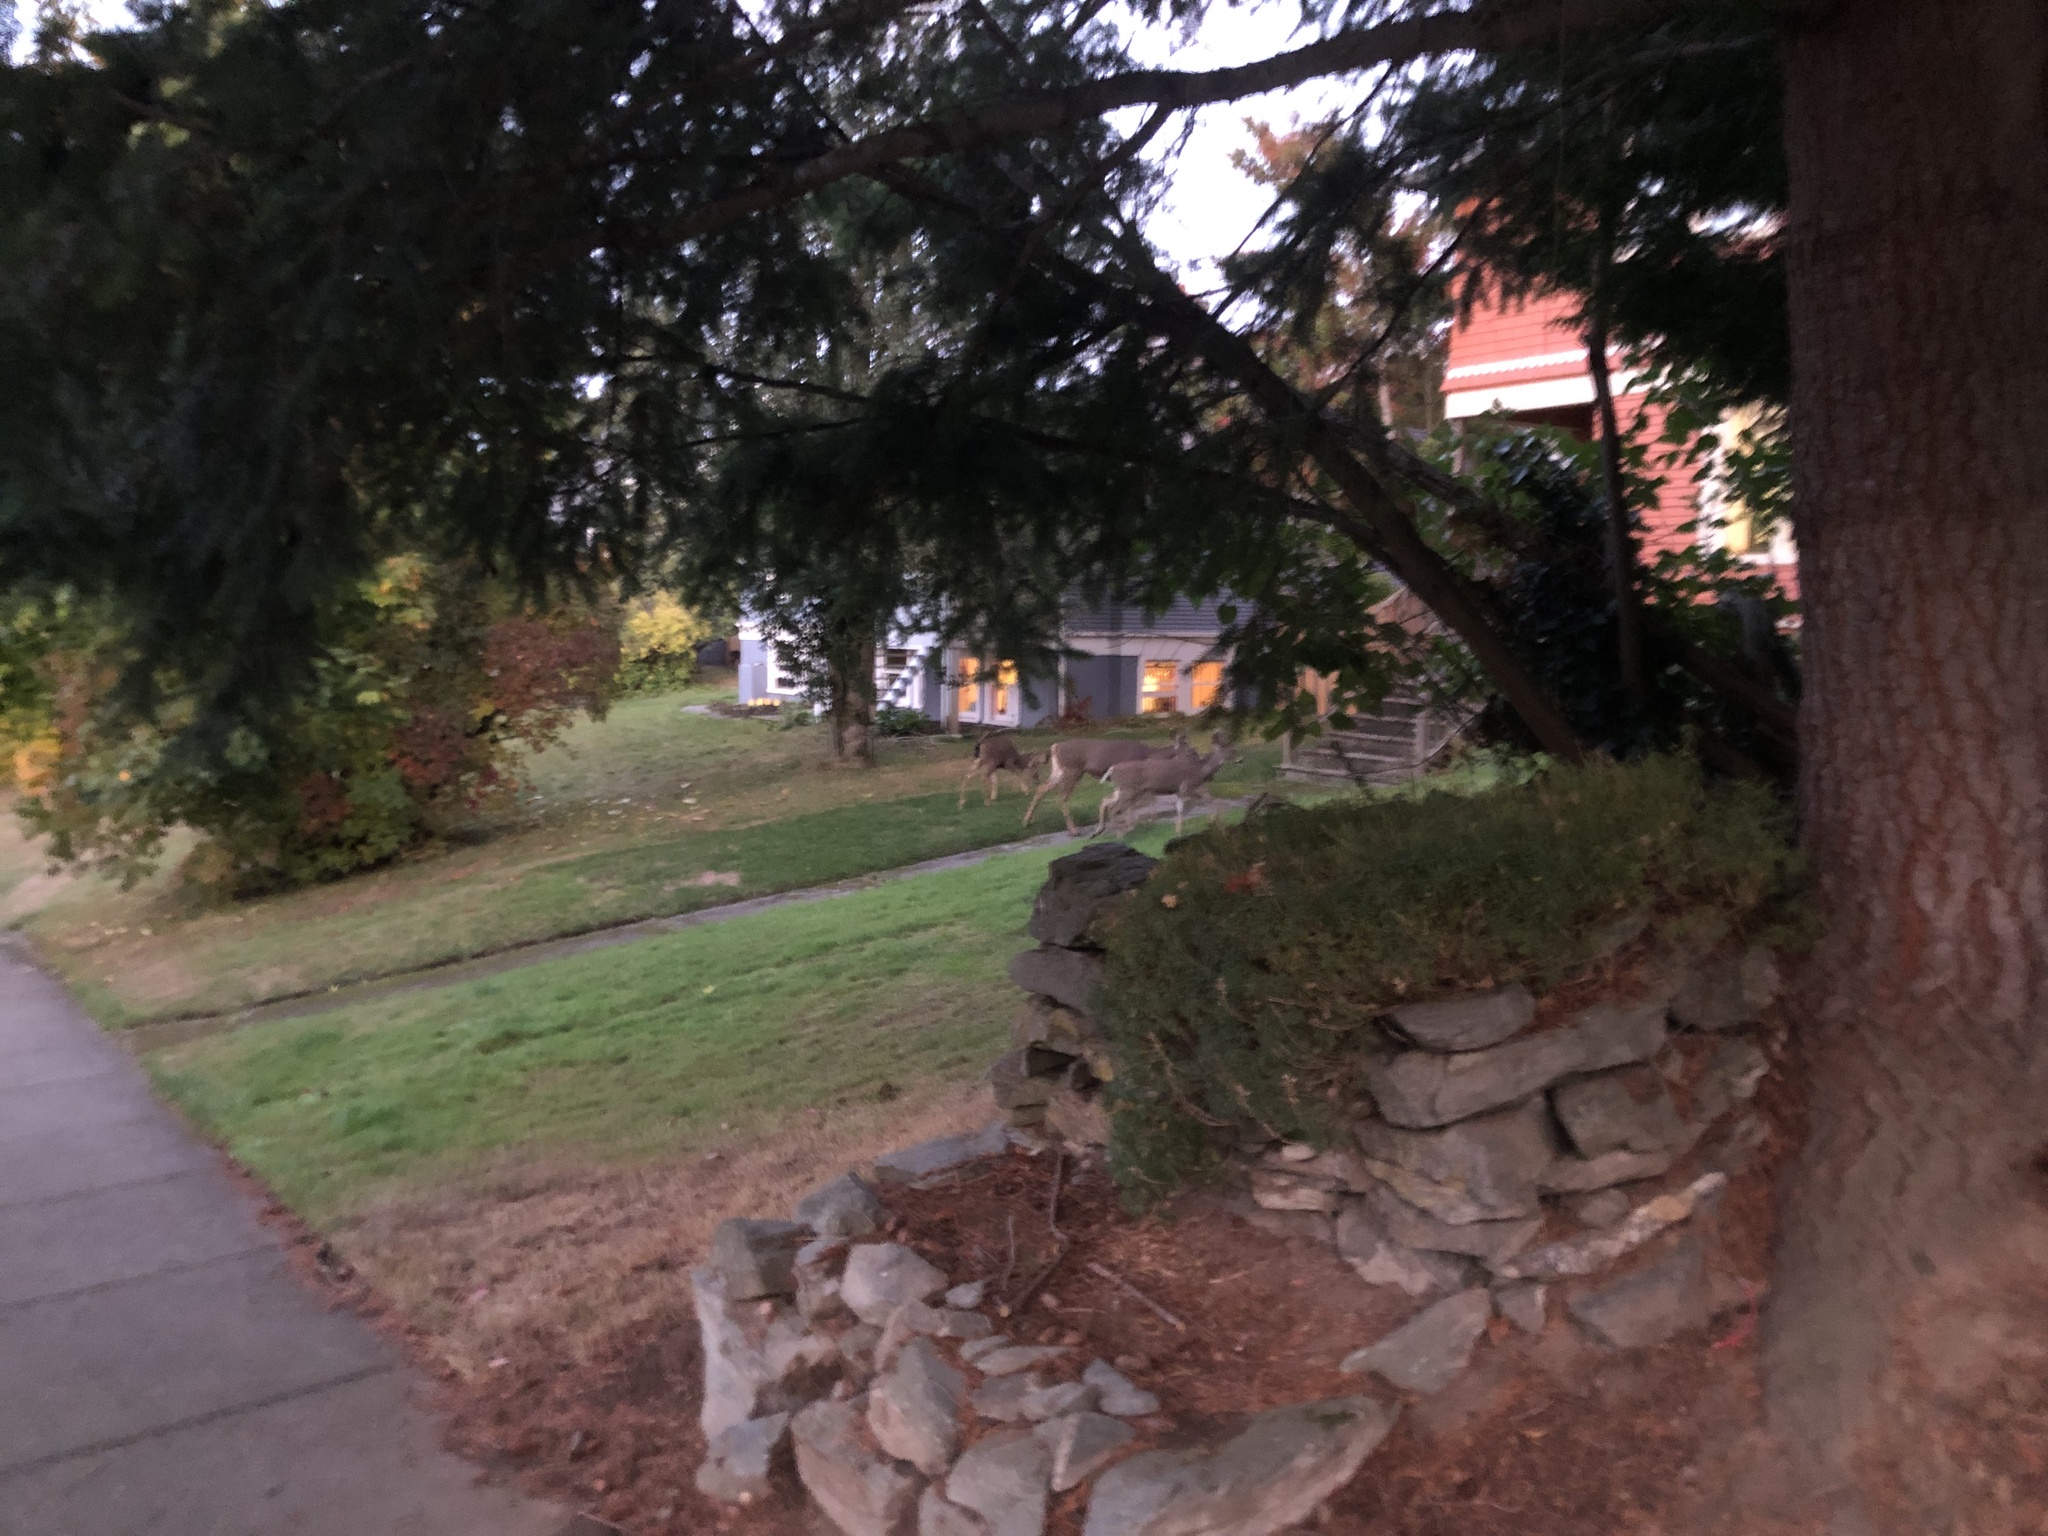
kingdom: Animalia
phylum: Chordata
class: Mammalia
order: Artiodactyla
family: Cervidae
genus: Odocoileus
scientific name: Odocoileus hemionus
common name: Mule deer
